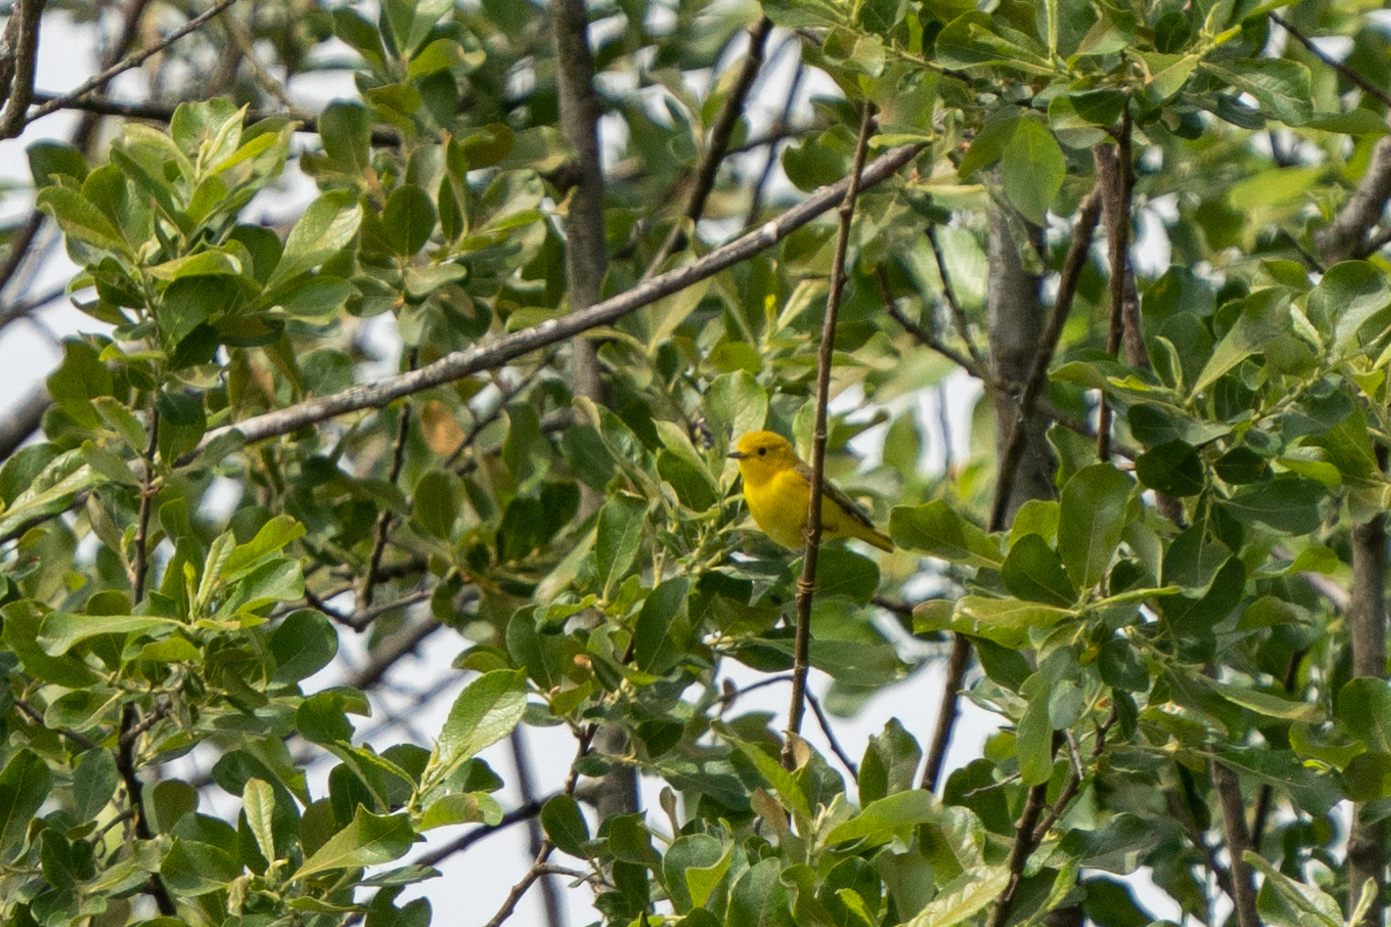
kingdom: Animalia
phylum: Chordata
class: Aves
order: Passeriformes
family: Parulidae
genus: Setophaga
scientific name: Setophaga petechia
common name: Yellow warbler
